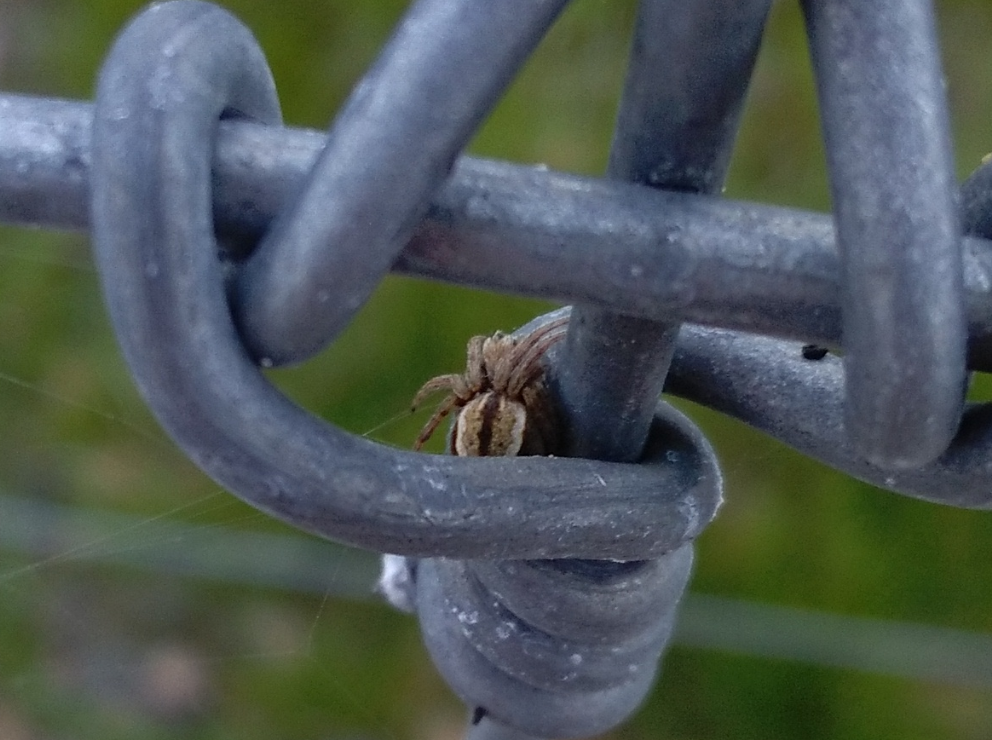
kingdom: Animalia
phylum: Arthropoda
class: Arachnida
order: Araneae
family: Araneidae
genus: Salsa
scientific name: Salsa fuliginata
